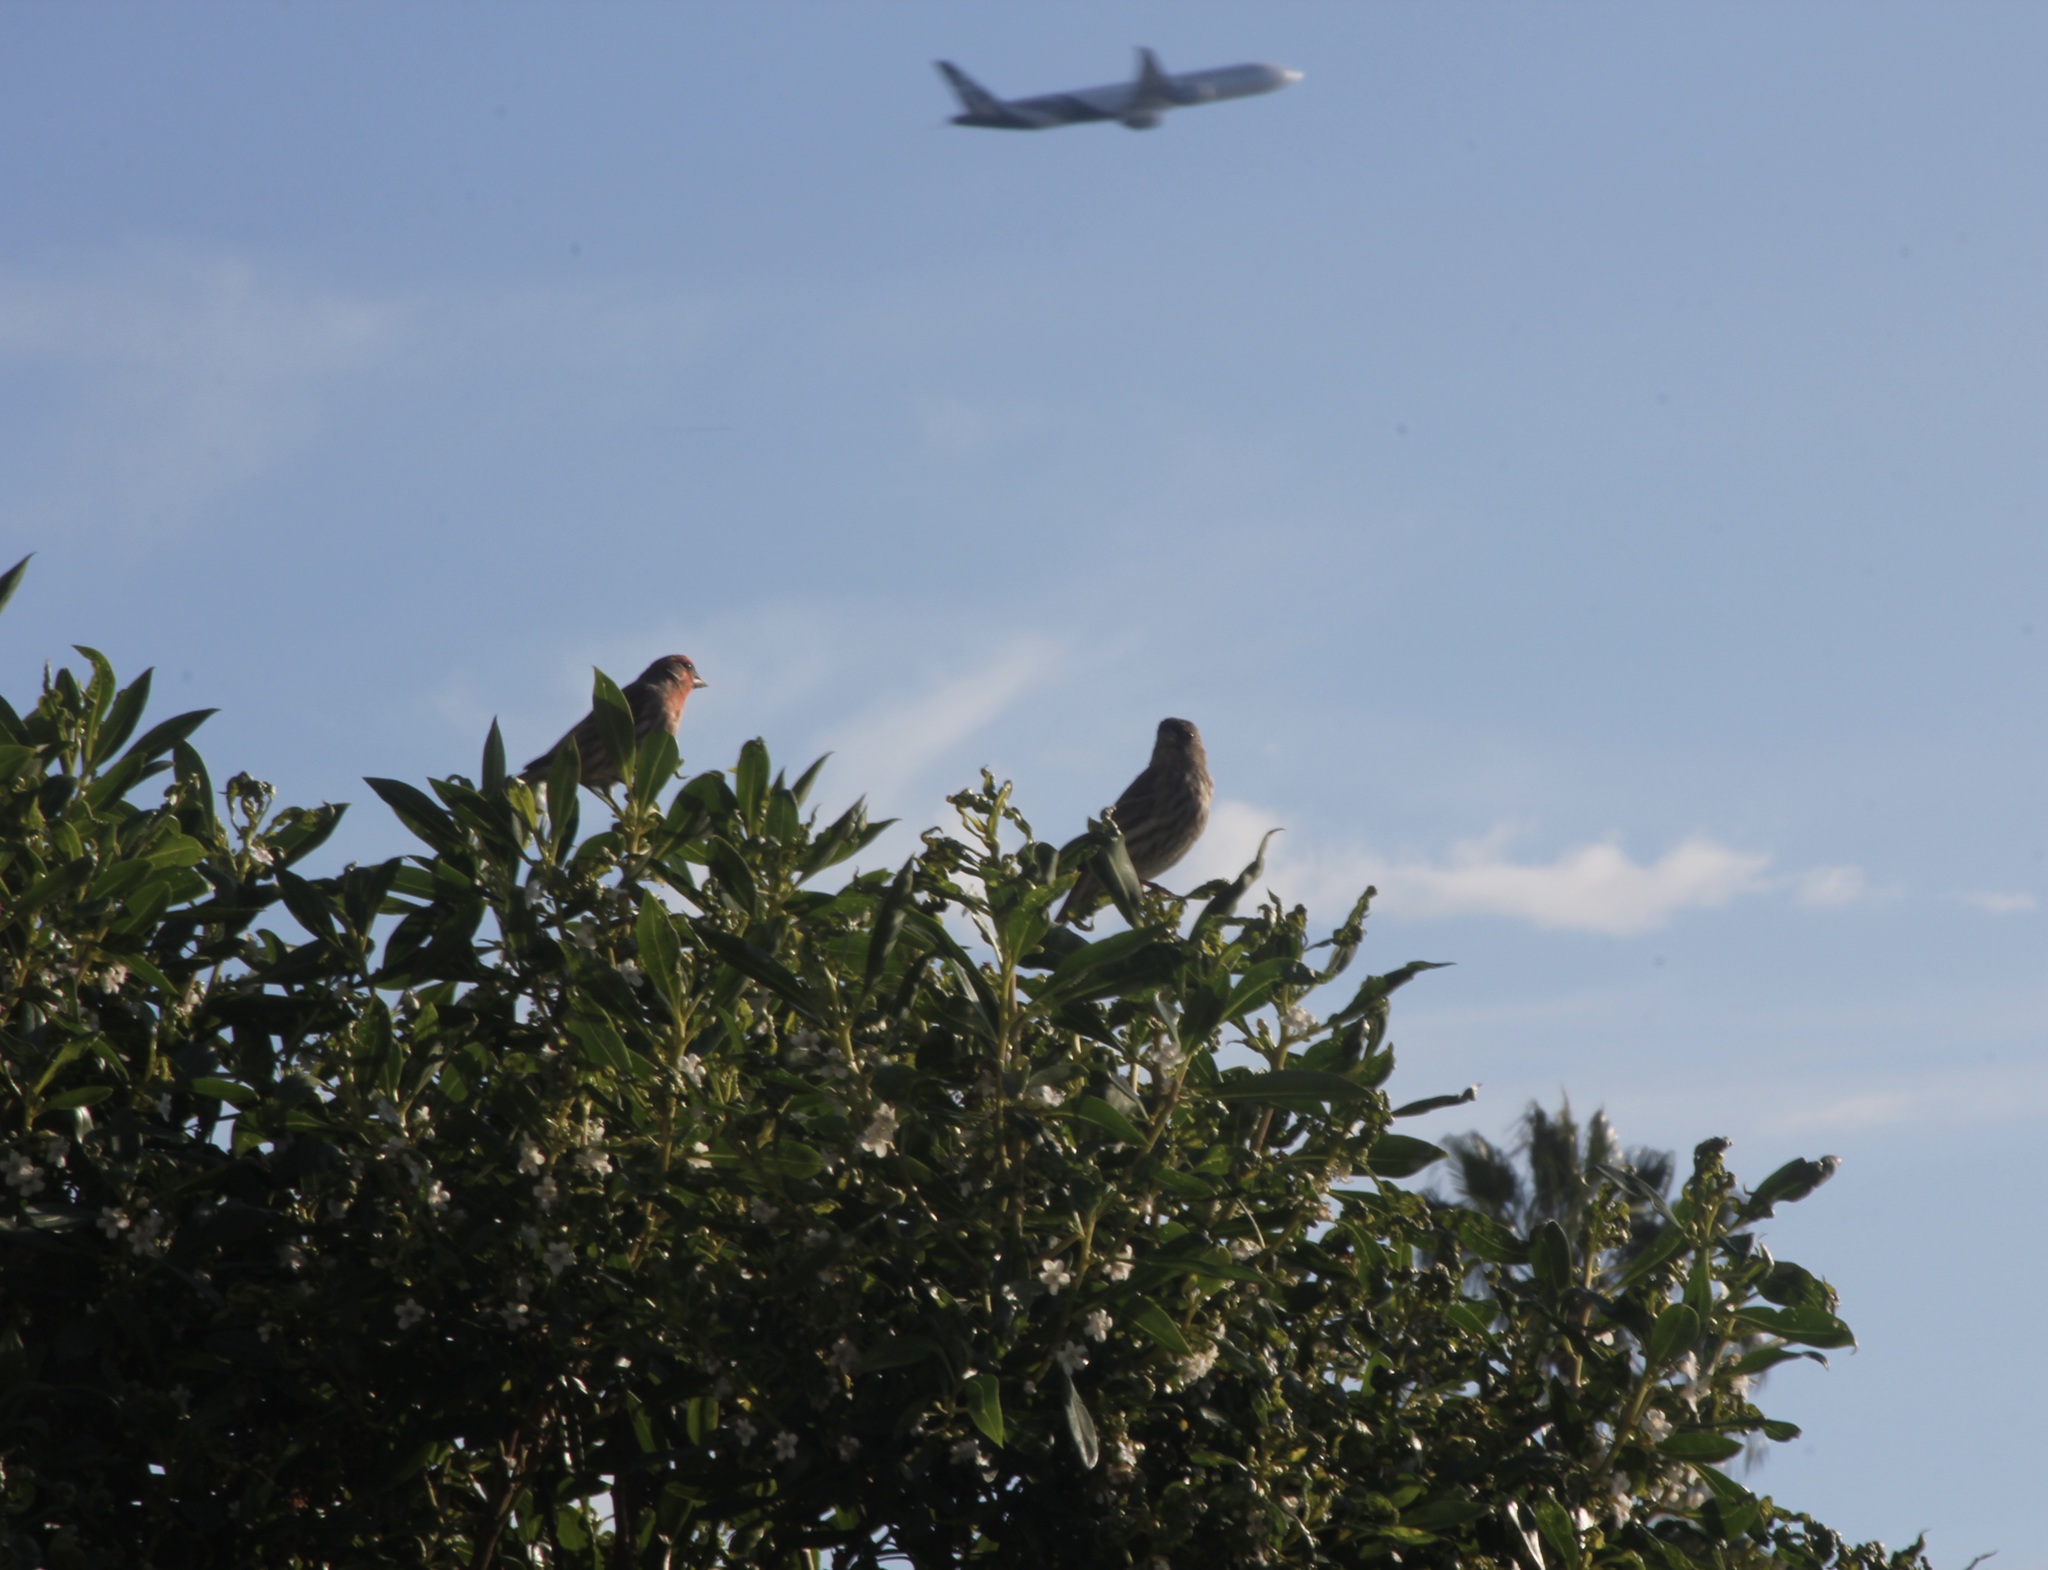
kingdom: Animalia
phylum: Chordata
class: Aves
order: Passeriformes
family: Fringillidae
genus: Haemorhous
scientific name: Haemorhous mexicanus
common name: House finch
